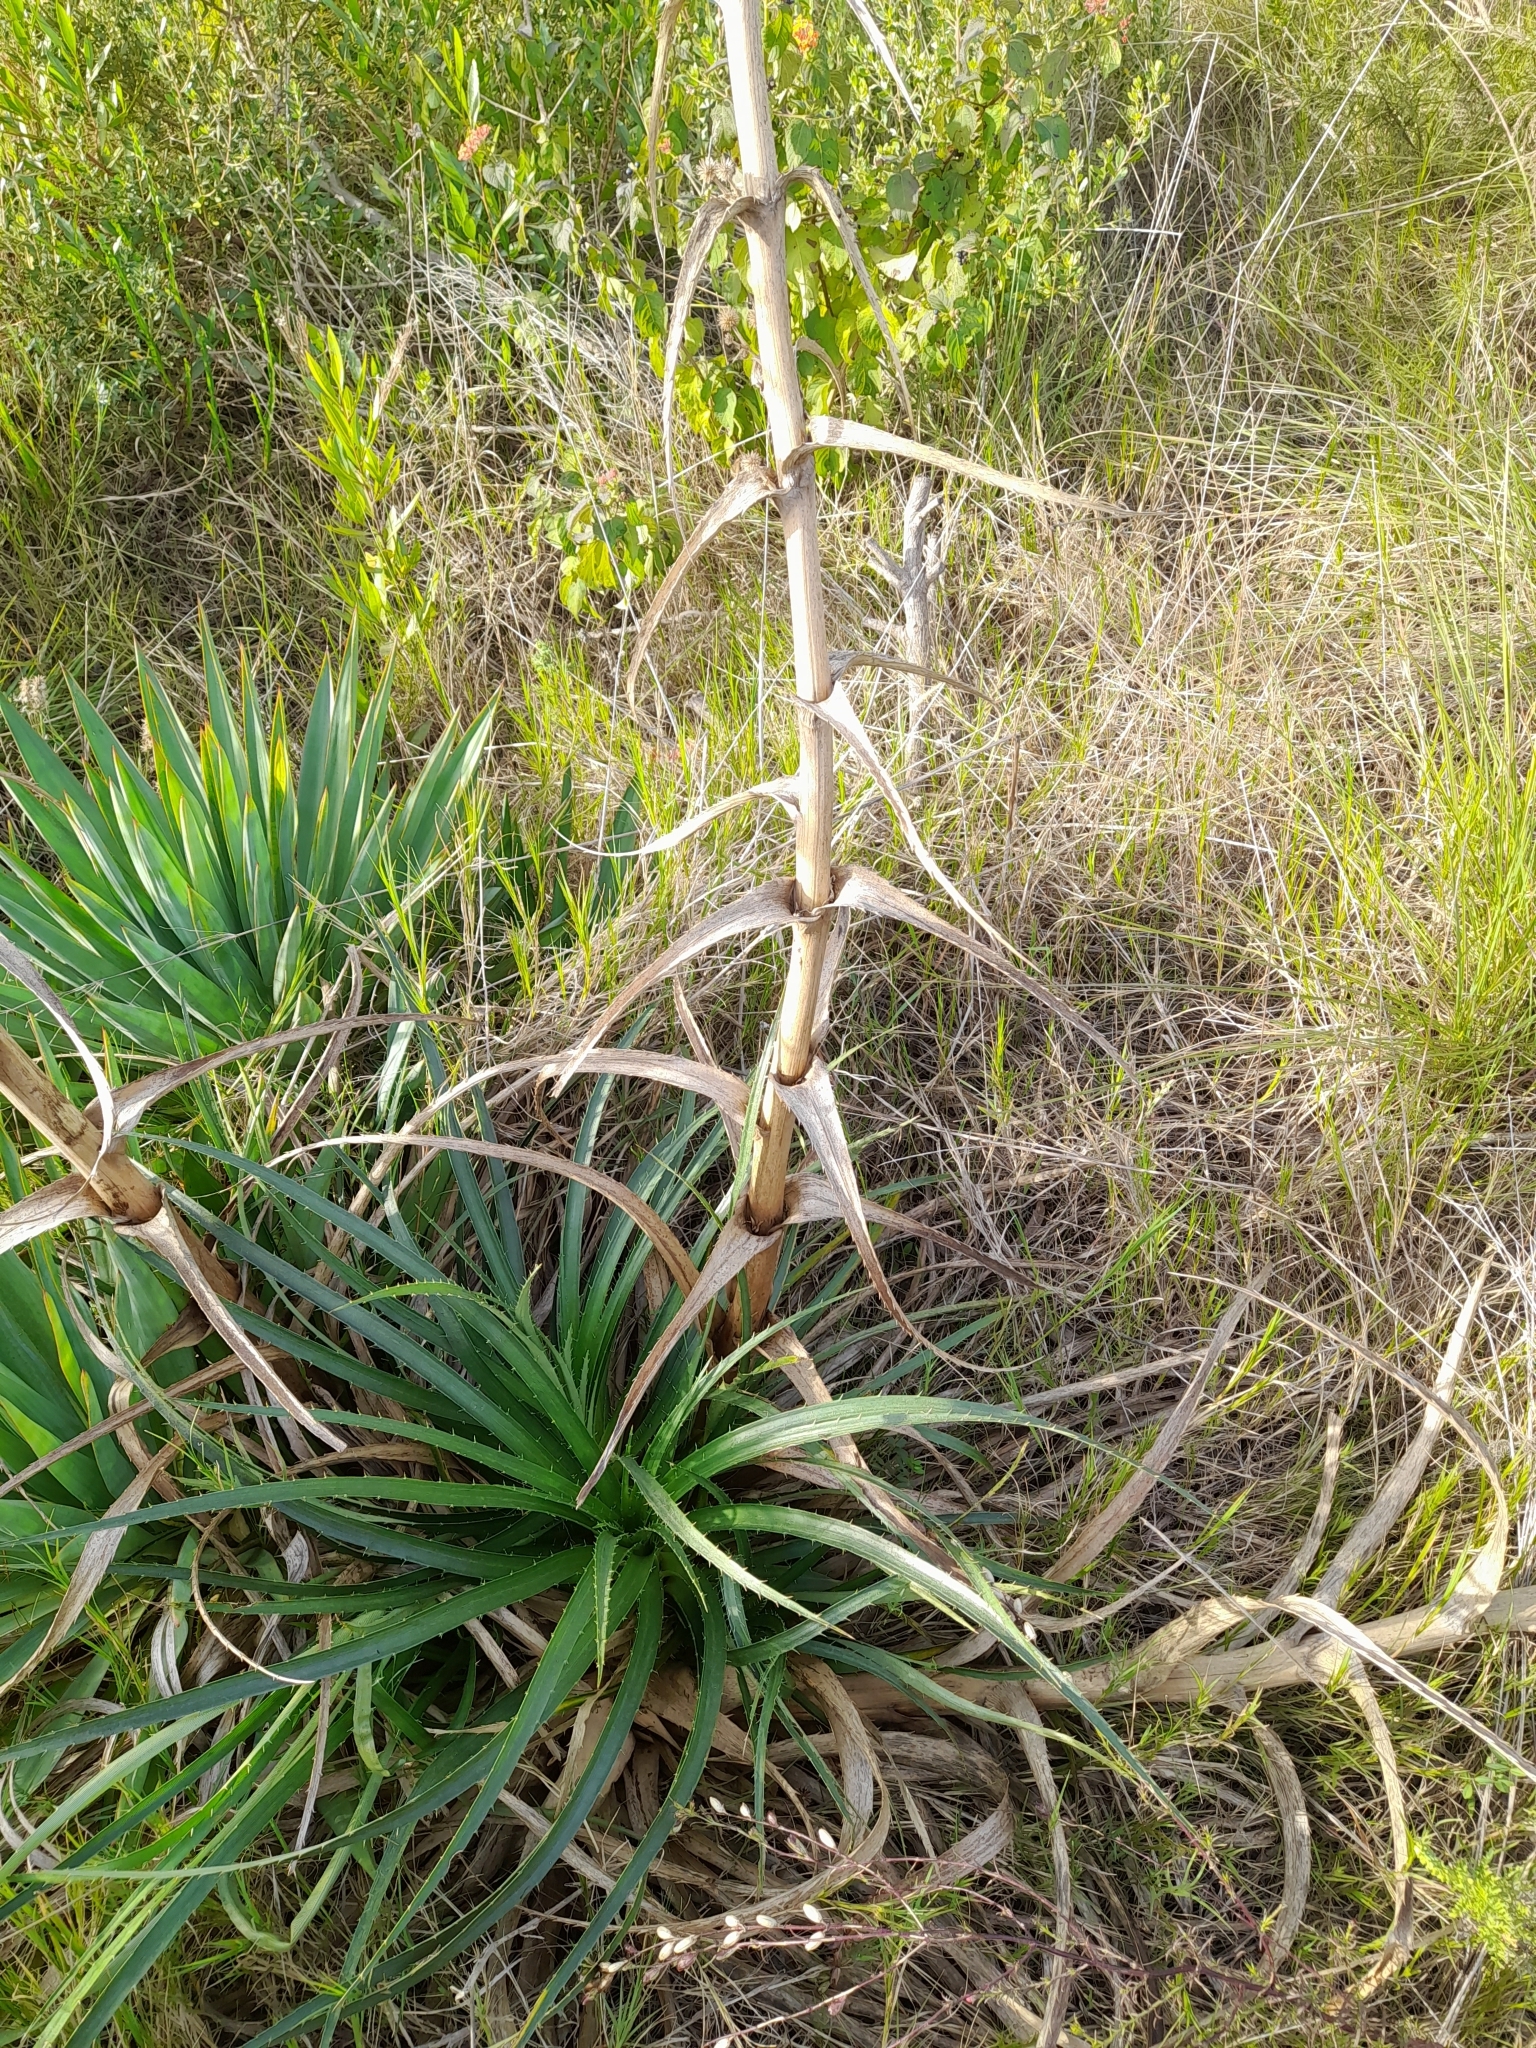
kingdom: Plantae
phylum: Tracheophyta
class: Magnoliopsida
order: Apiales
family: Apiaceae
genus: Eryngium
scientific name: Eryngium horridum
